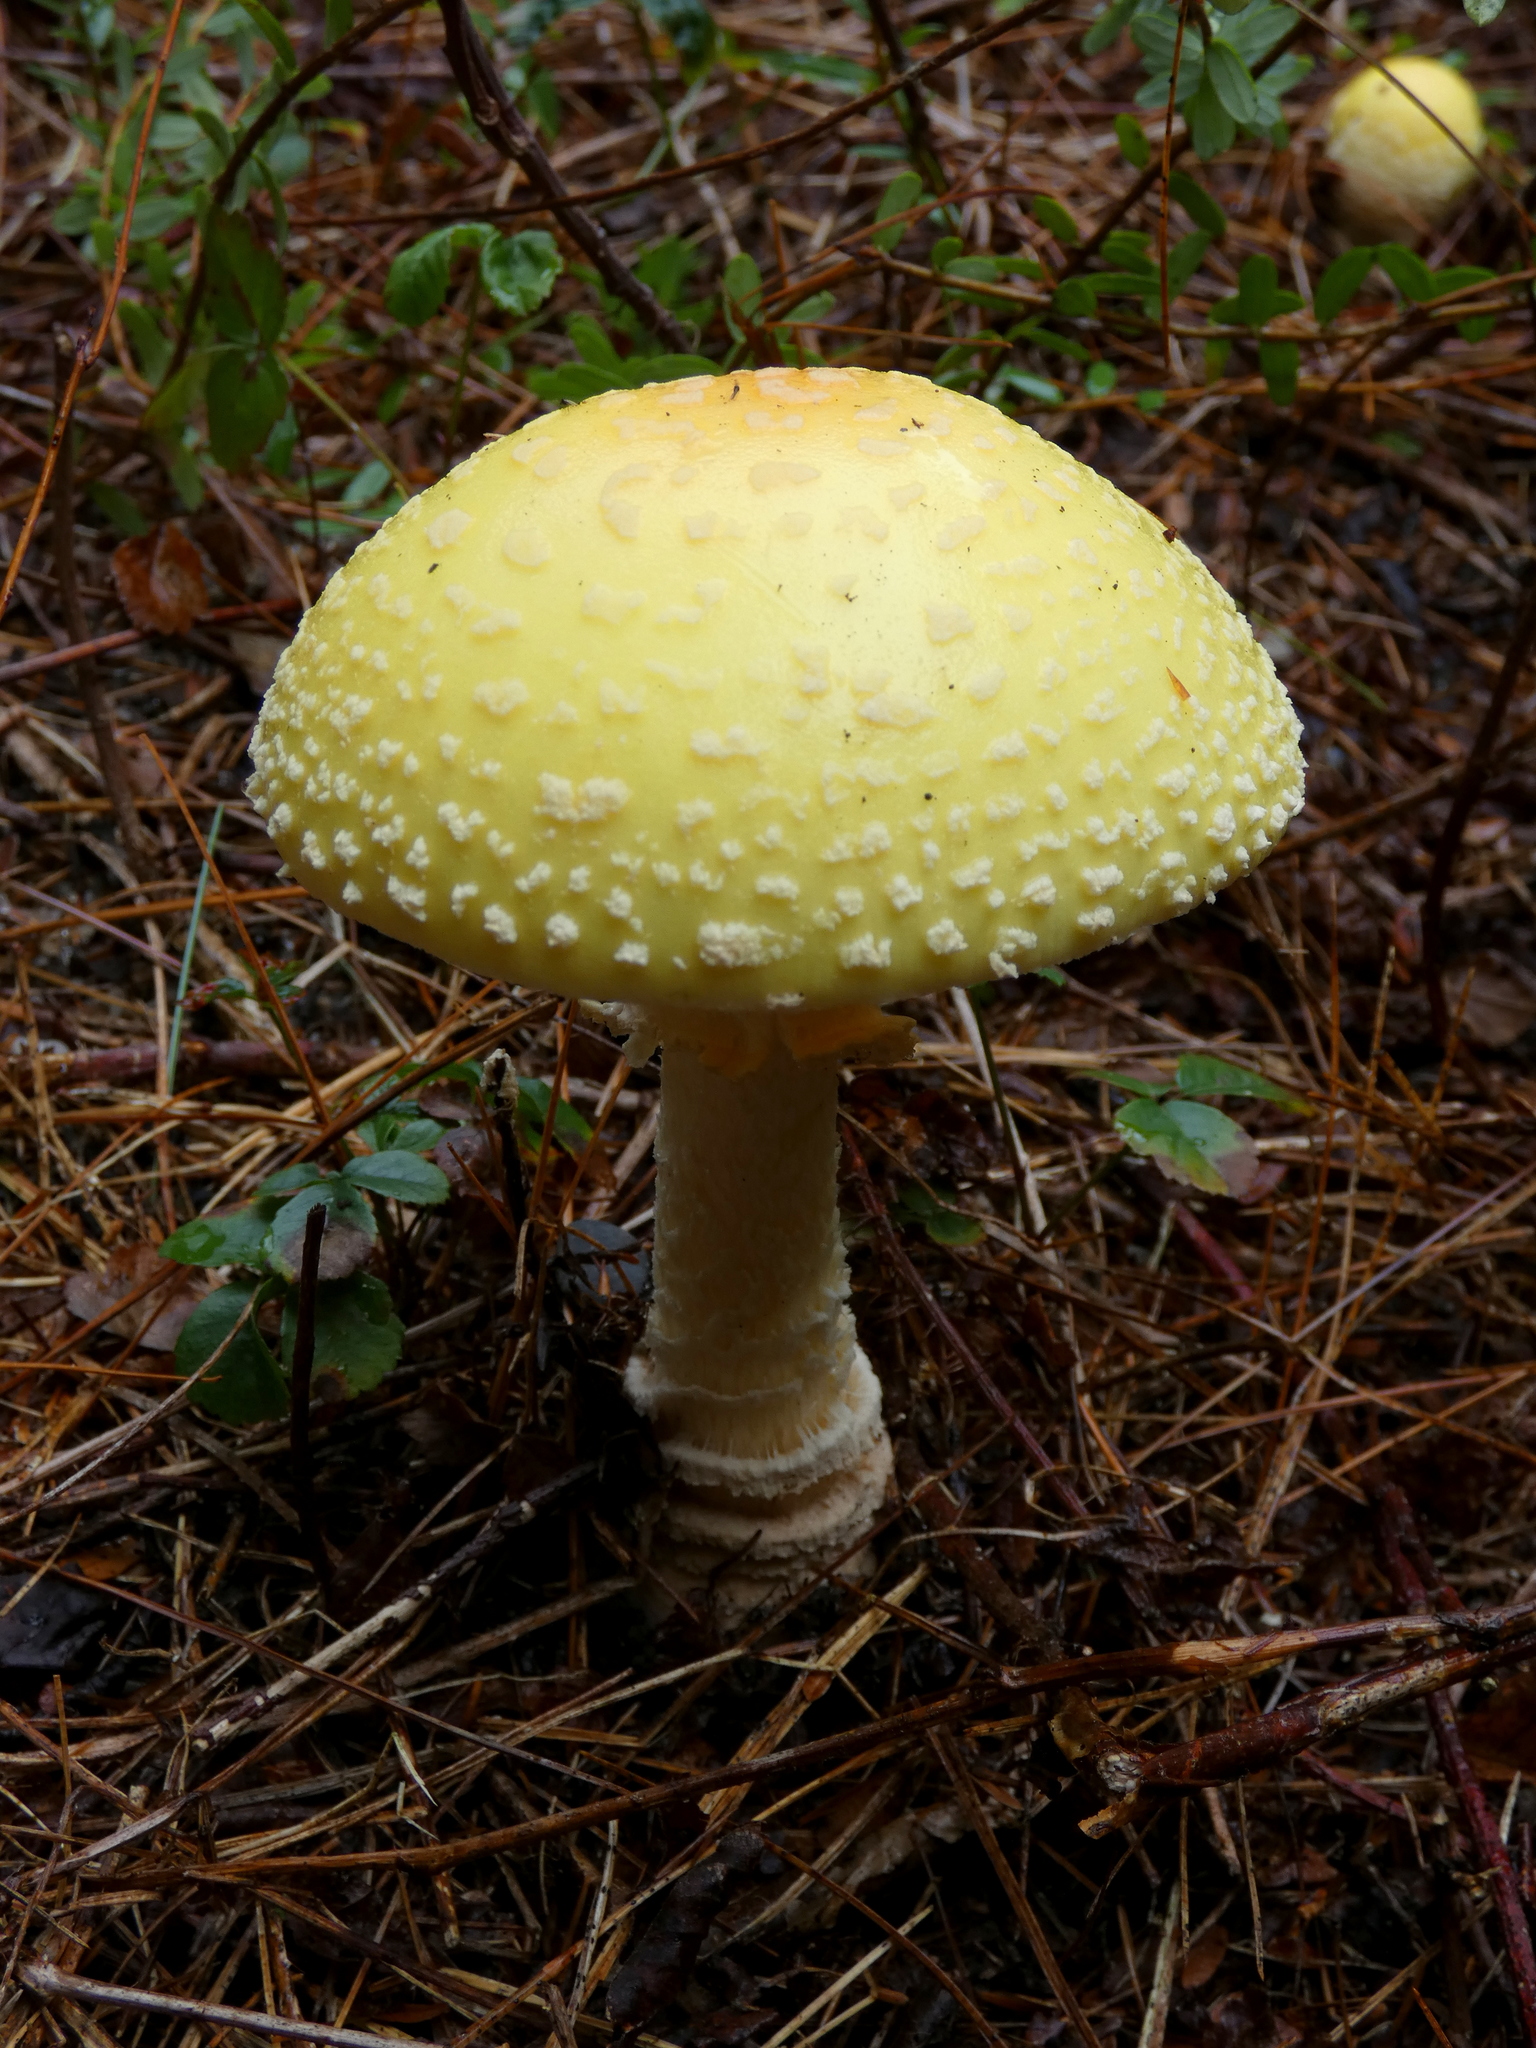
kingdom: Fungi
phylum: Basidiomycota
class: Agaricomycetes
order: Agaricales
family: Amanitaceae
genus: Amanita
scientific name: Amanita muscaria
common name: Fly agaric
